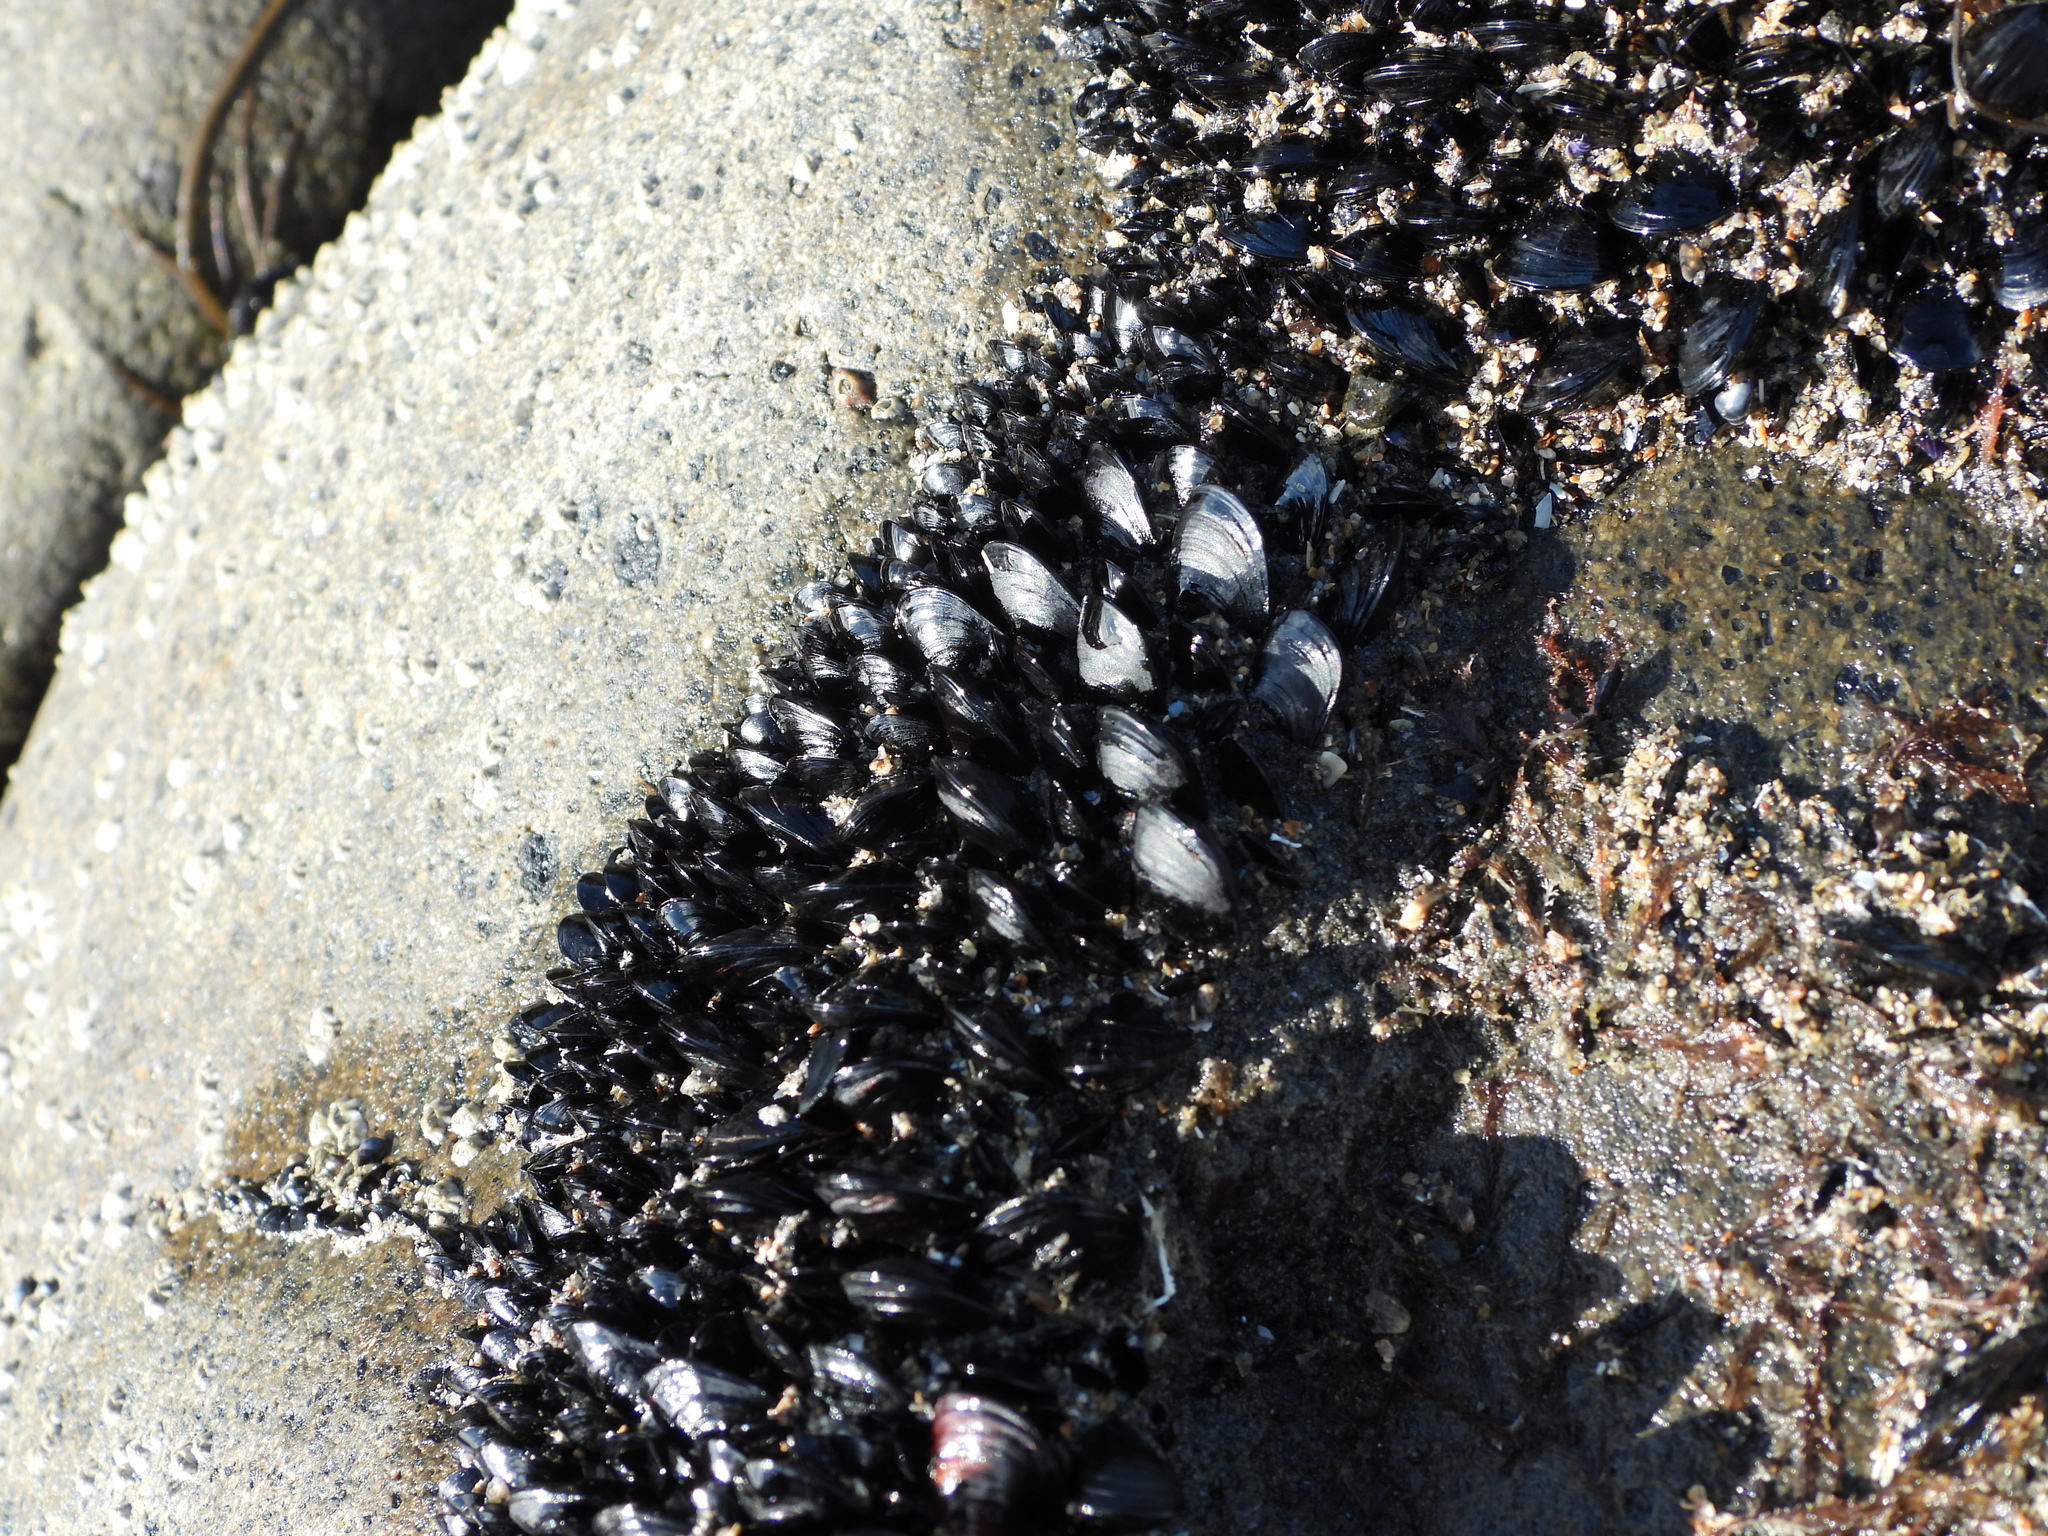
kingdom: Animalia
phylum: Mollusca
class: Bivalvia
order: Mytilida
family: Mytilidae
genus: Xenostrobus
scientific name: Xenostrobus neozelanicus
